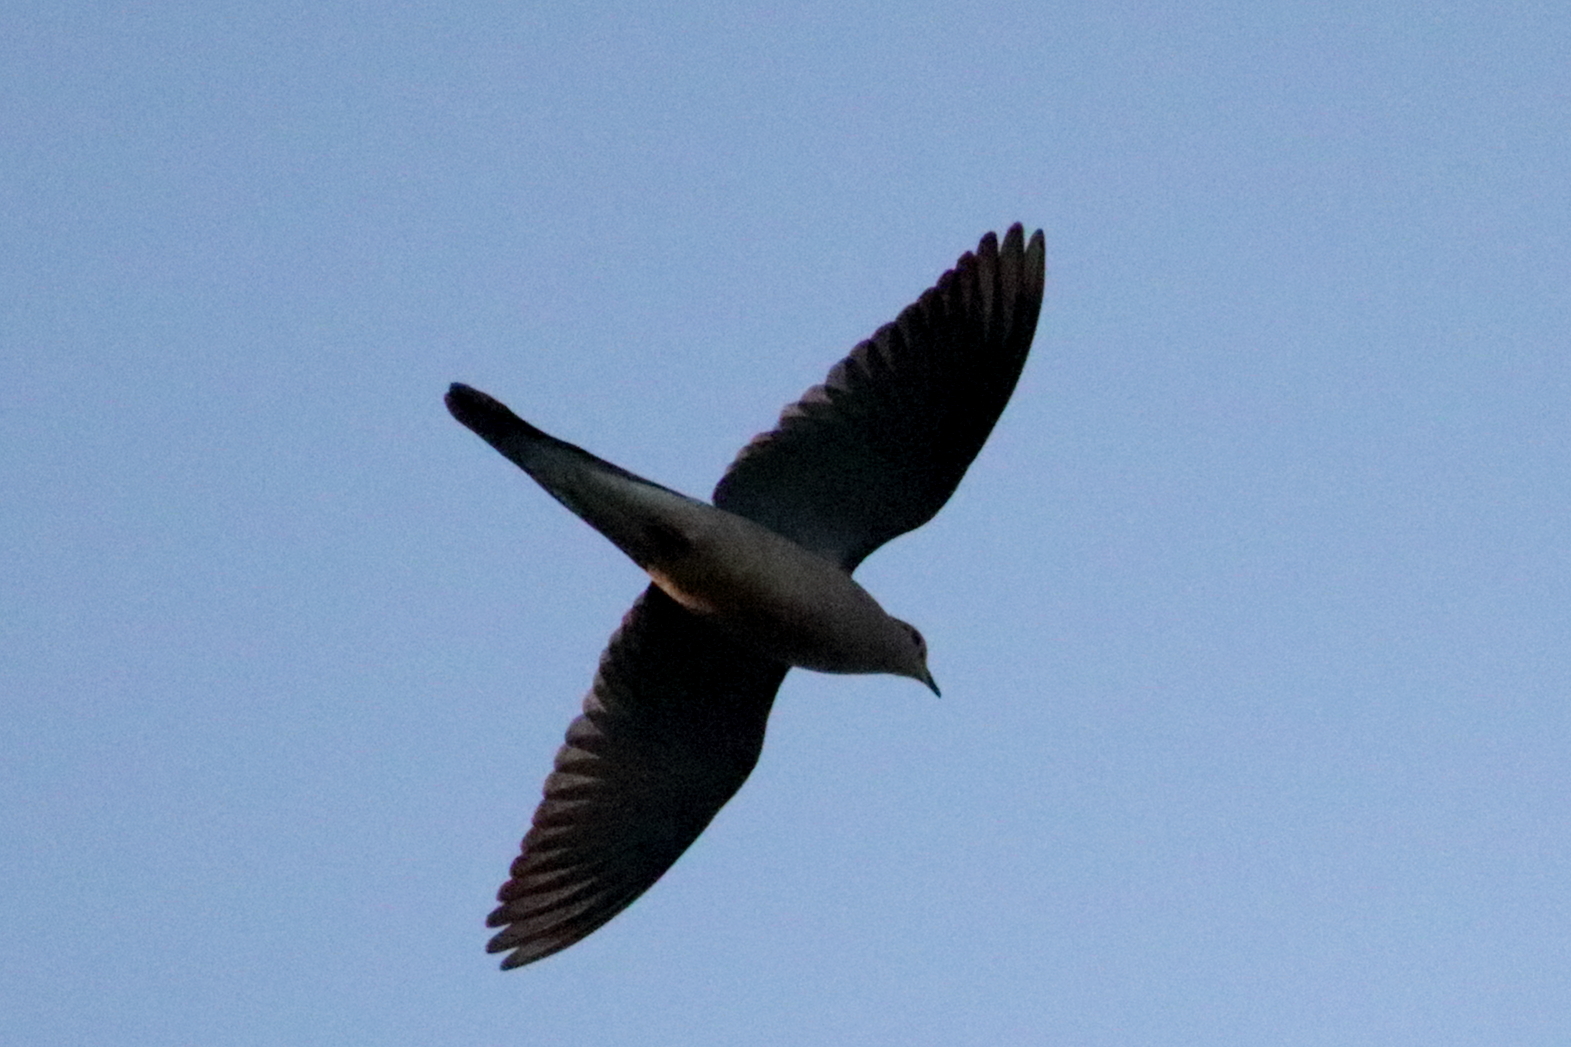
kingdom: Animalia
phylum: Chordata
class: Aves
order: Columbiformes
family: Columbidae
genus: Zenaida
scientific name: Zenaida macroura
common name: Mourning dove
